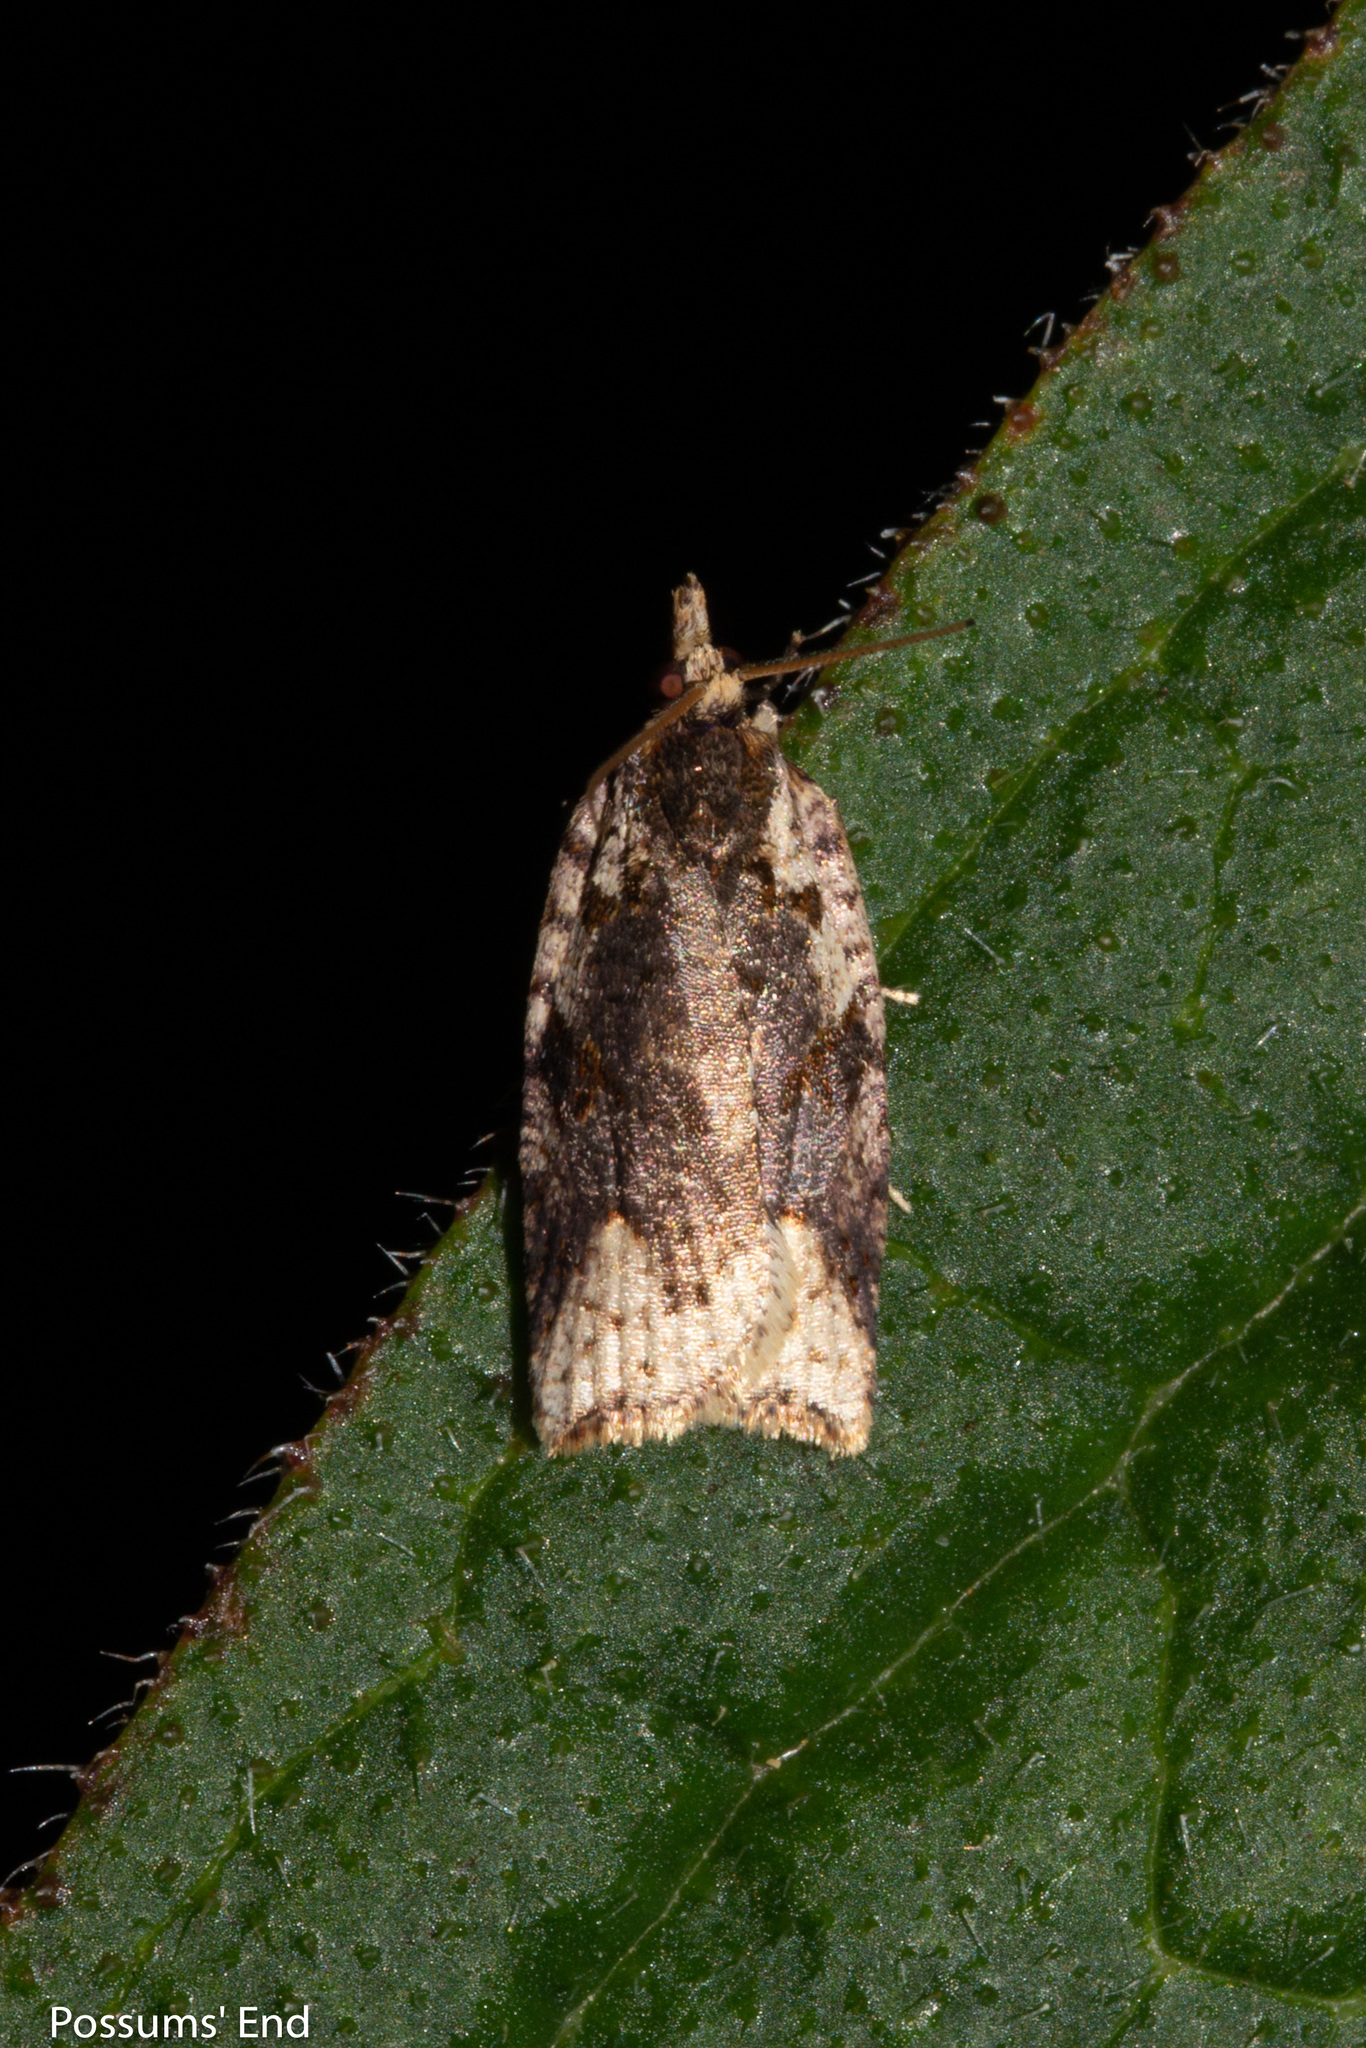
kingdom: Animalia
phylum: Arthropoda
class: Insecta
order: Lepidoptera
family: Tortricidae
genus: Ctenopseustis
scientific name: Ctenopseustis obliquana
